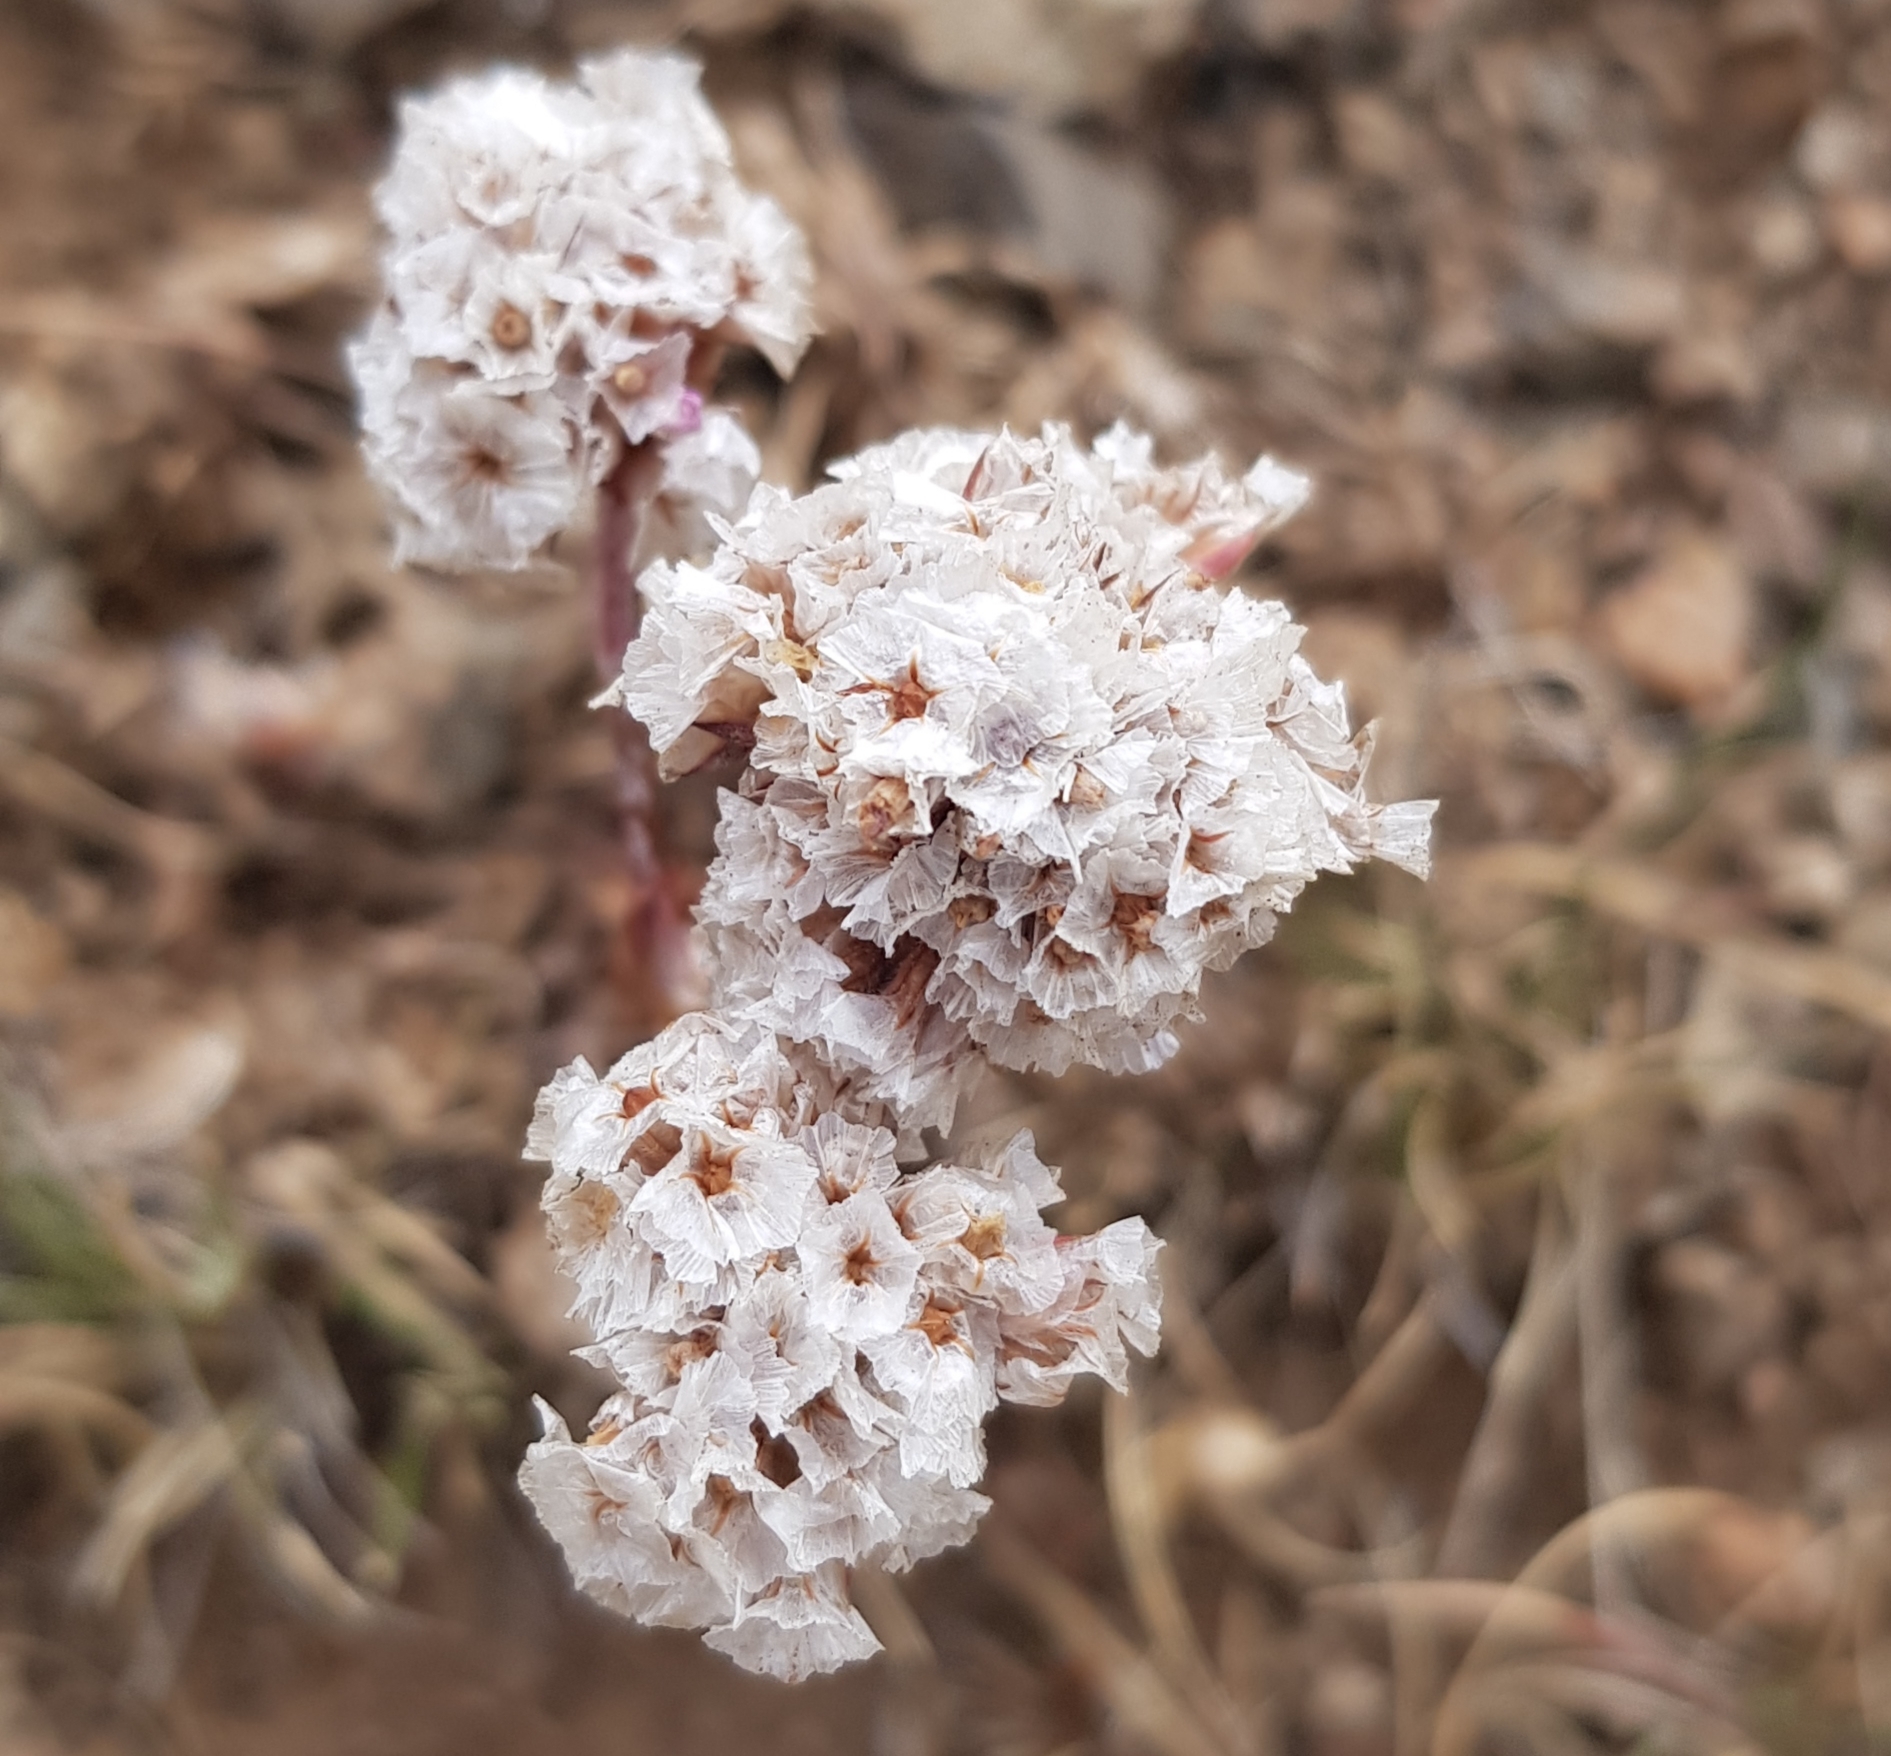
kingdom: Plantae
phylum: Tracheophyta
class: Magnoliopsida
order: Caryophyllales
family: Plumbaginaceae
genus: Goniolimon
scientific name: Goniolimon speciosum
